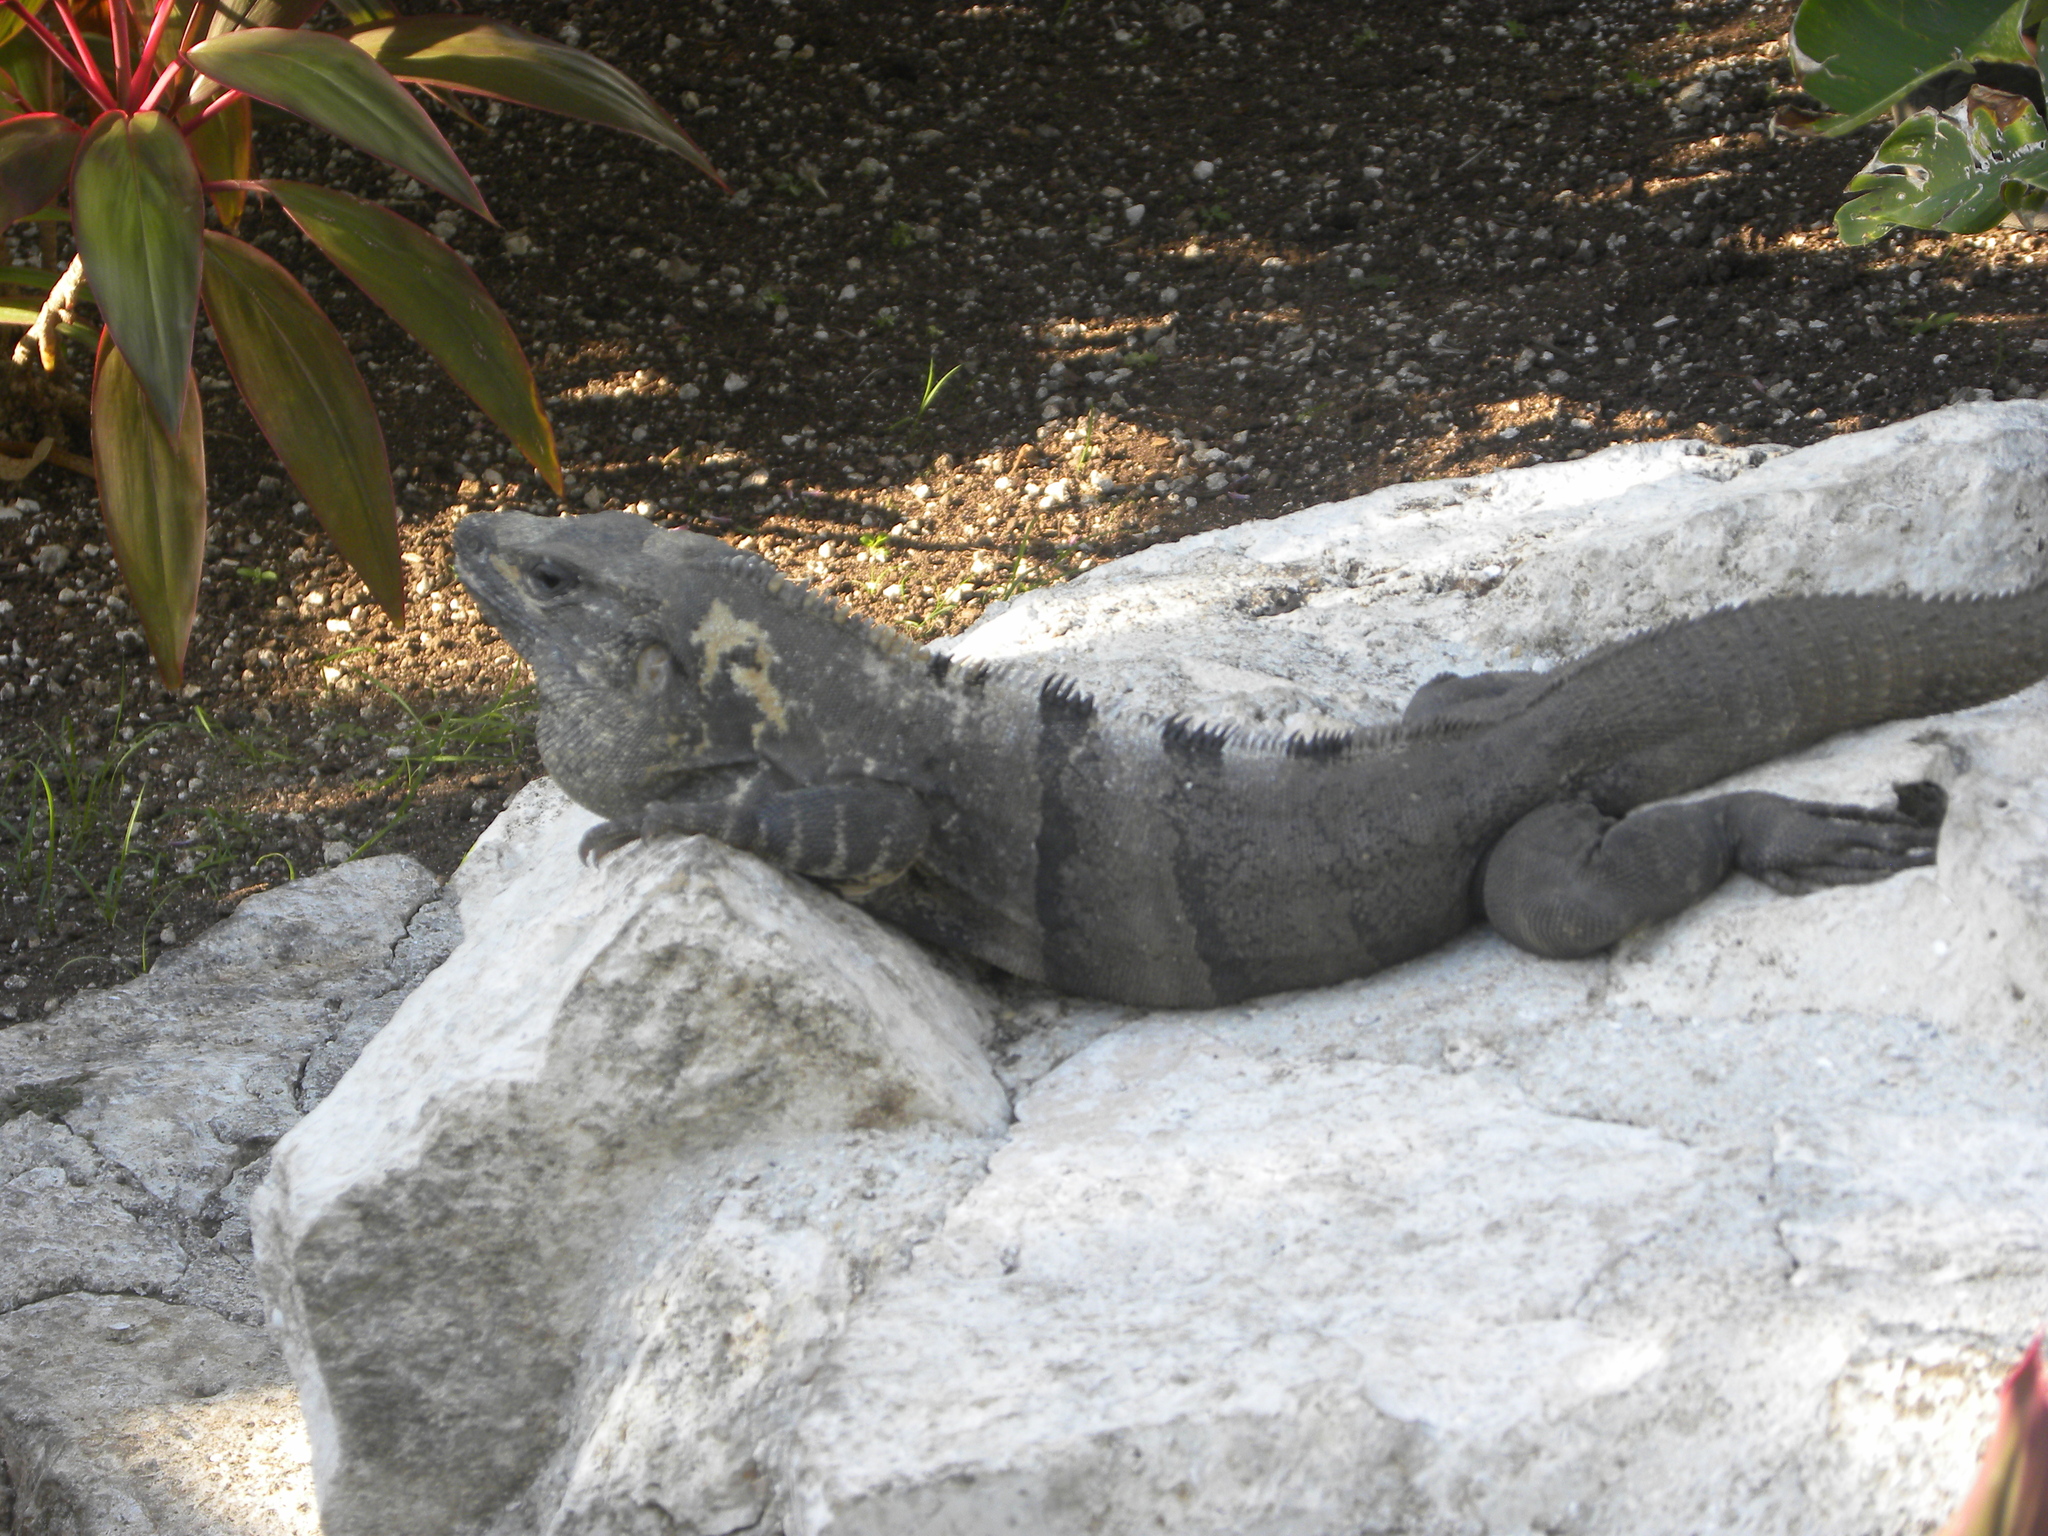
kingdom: Animalia
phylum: Chordata
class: Squamata
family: Iguanidae
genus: Ctenosaura
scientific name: Ctenosaura similis
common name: Black spiny-tailed iguana
